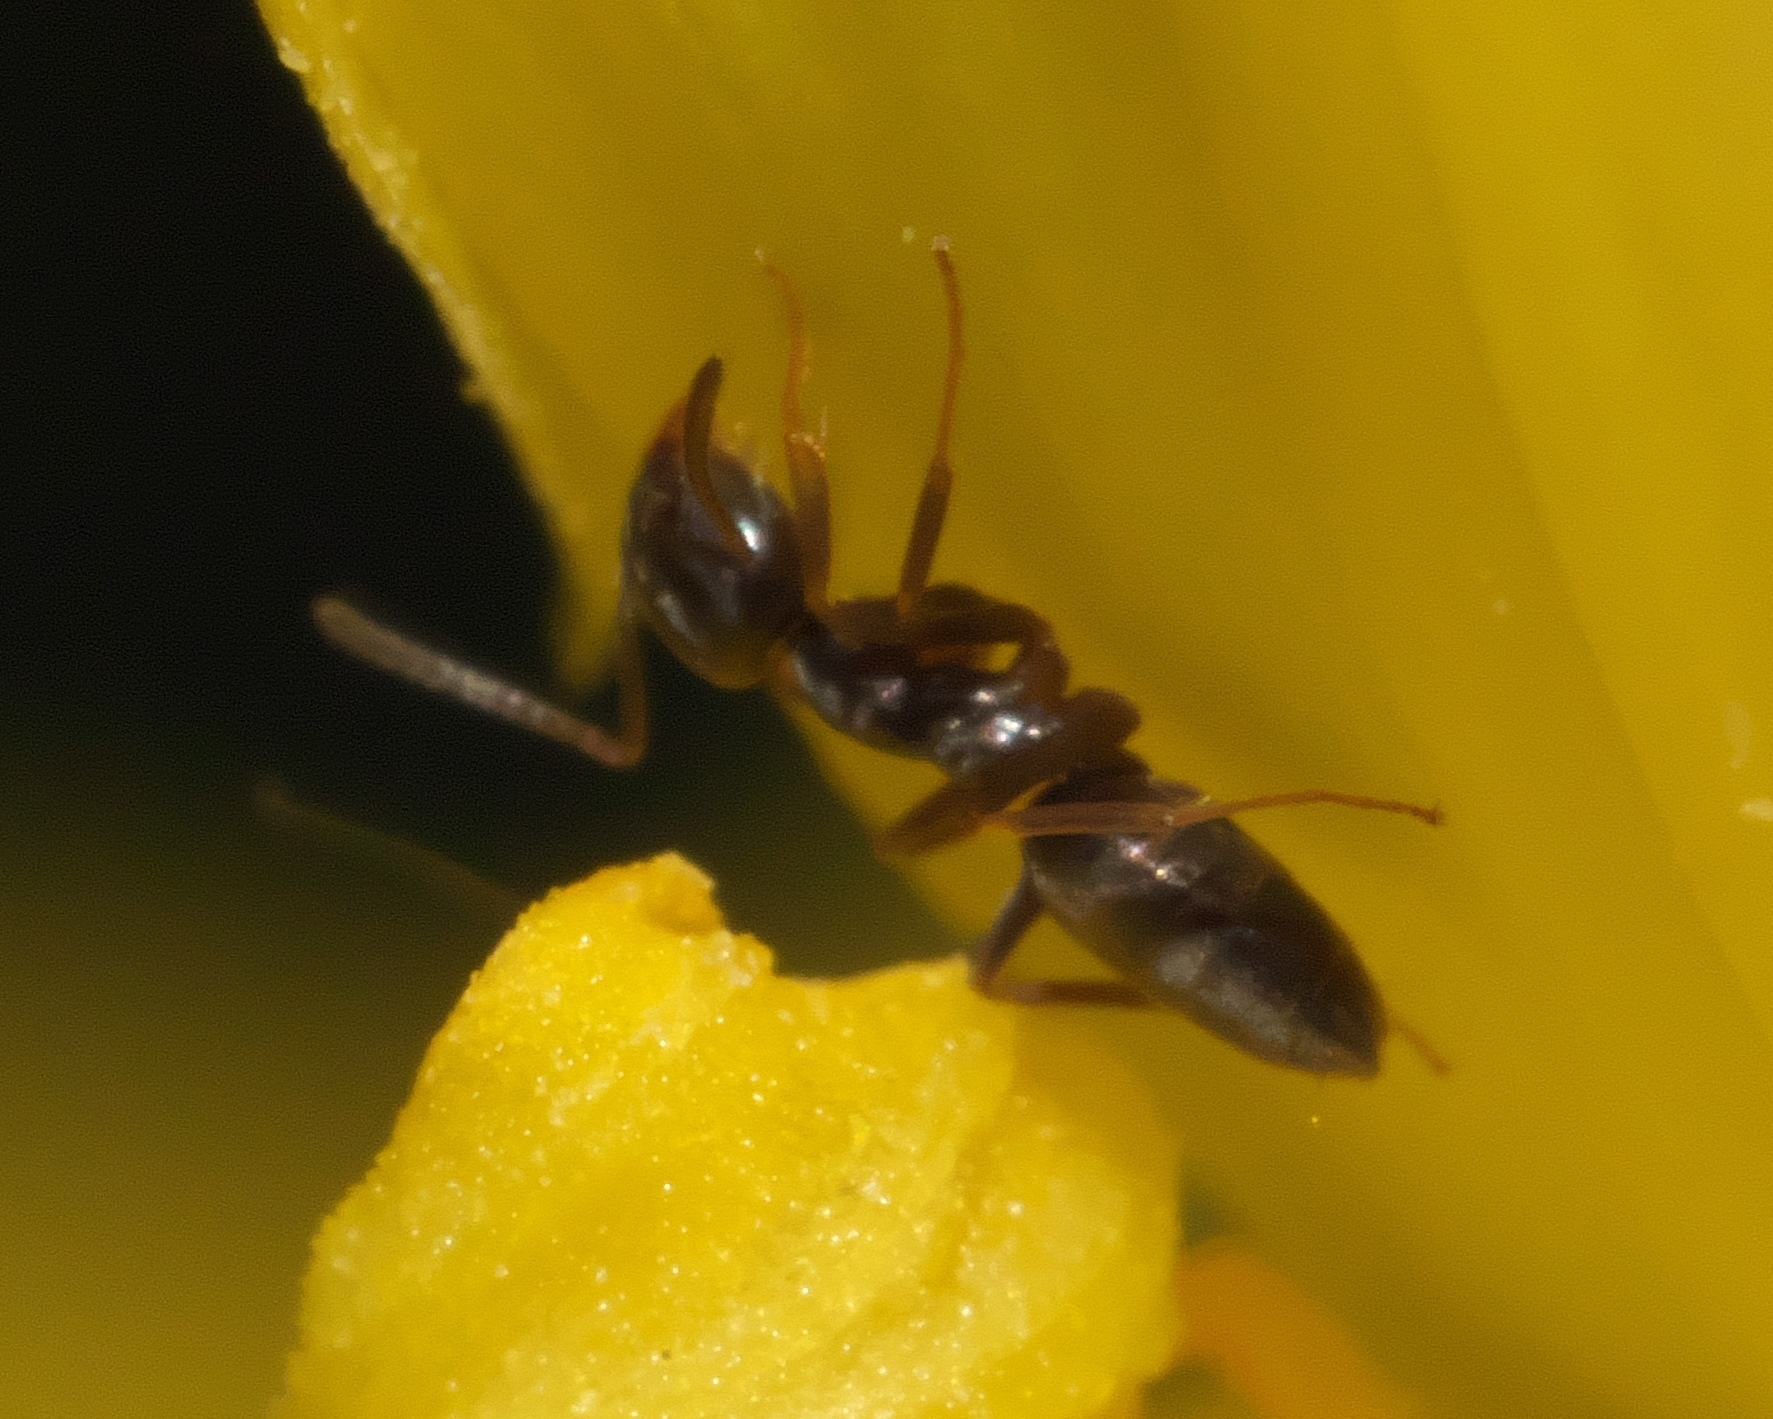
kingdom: Animalia
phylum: Arthropoda
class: Insecta
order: Hymenoptera
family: Formicidae
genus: Tapinoma
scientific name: Tapinoma sessile
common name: Odorous house ant
